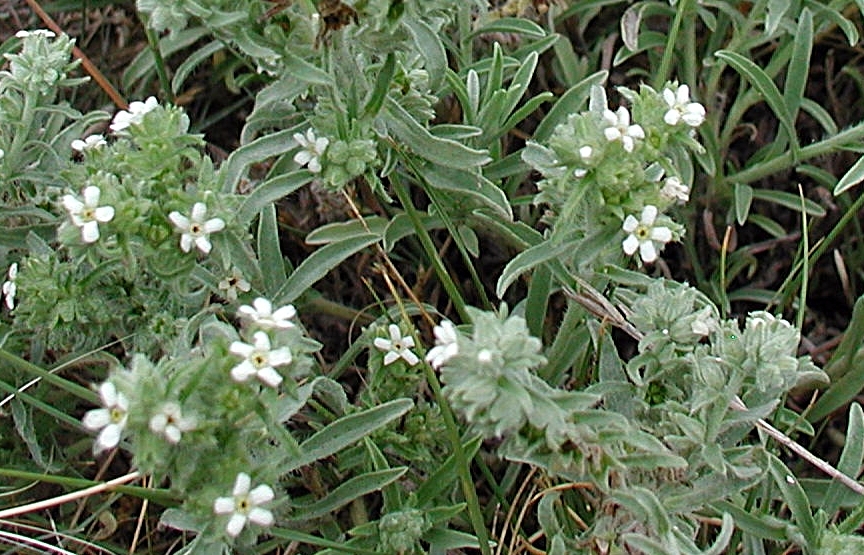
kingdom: Plantae
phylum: Tracheophyta
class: Magnoliopsida
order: Boraginales
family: Boraginaceae
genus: Oreocarya
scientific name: Oreocarya suffruticosa
